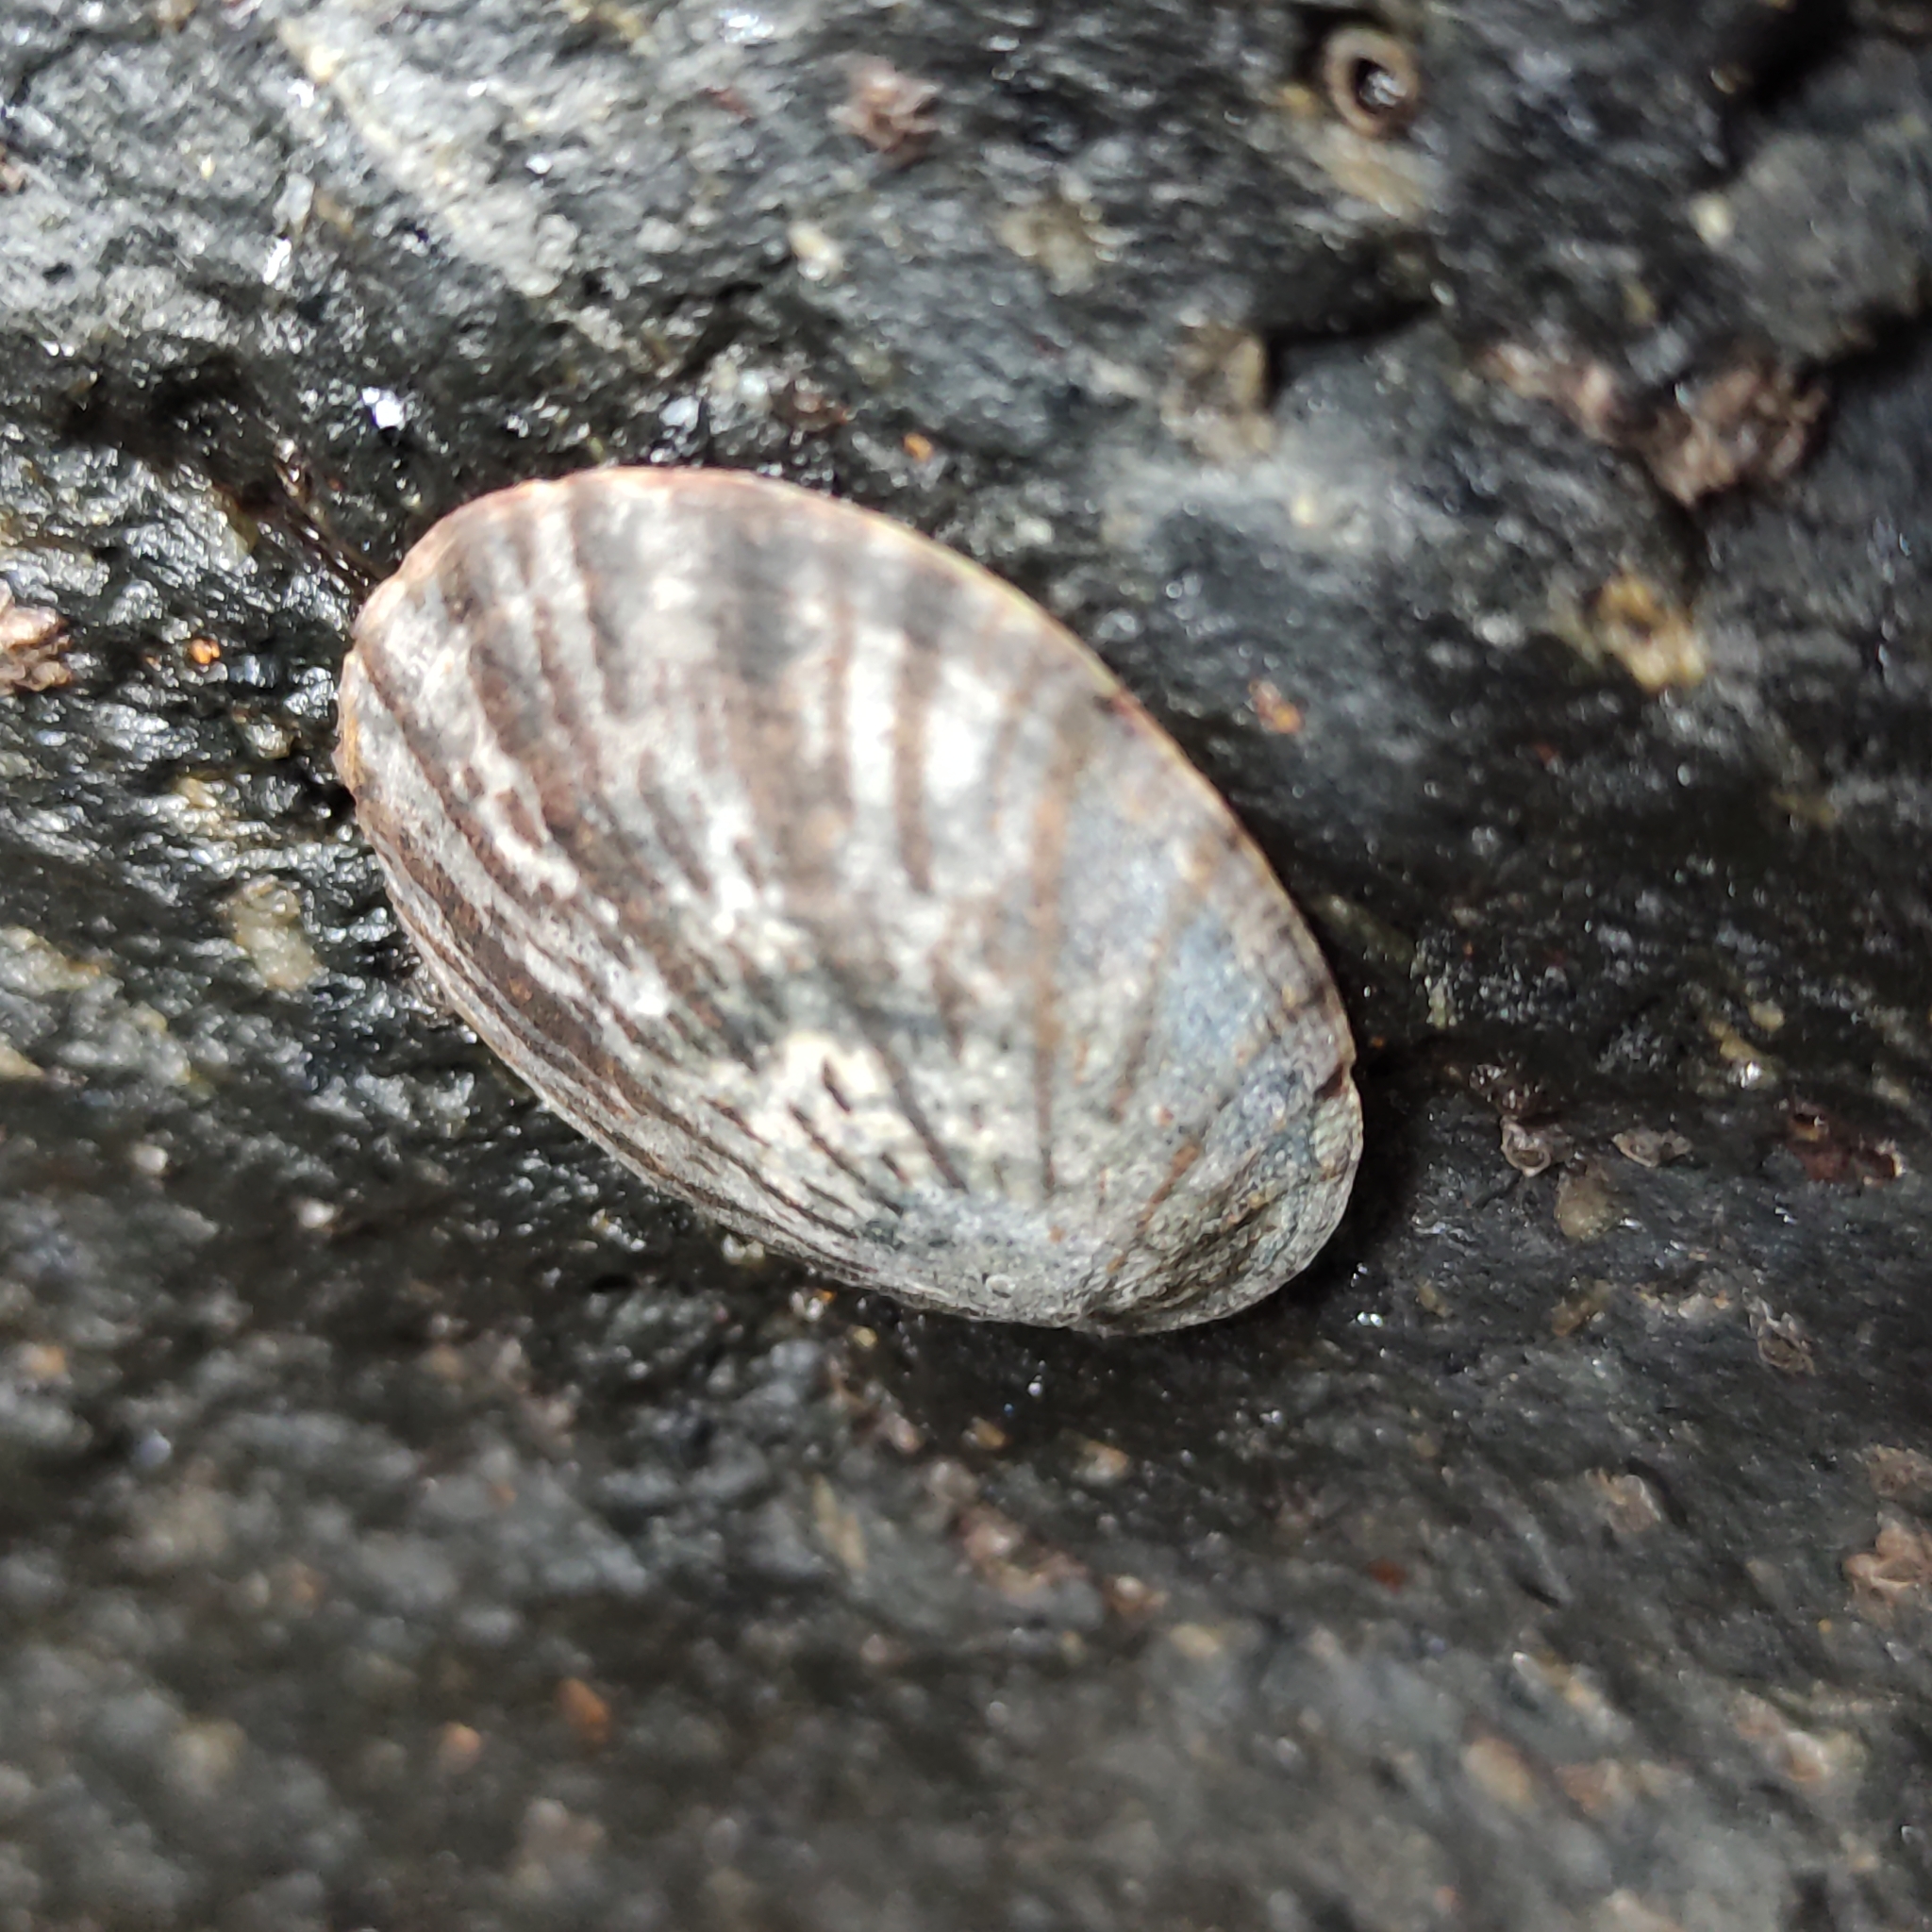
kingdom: Animalia
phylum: Mollusca
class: Gastropoda
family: Nacellidae
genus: Cellana
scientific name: Cellana radians
